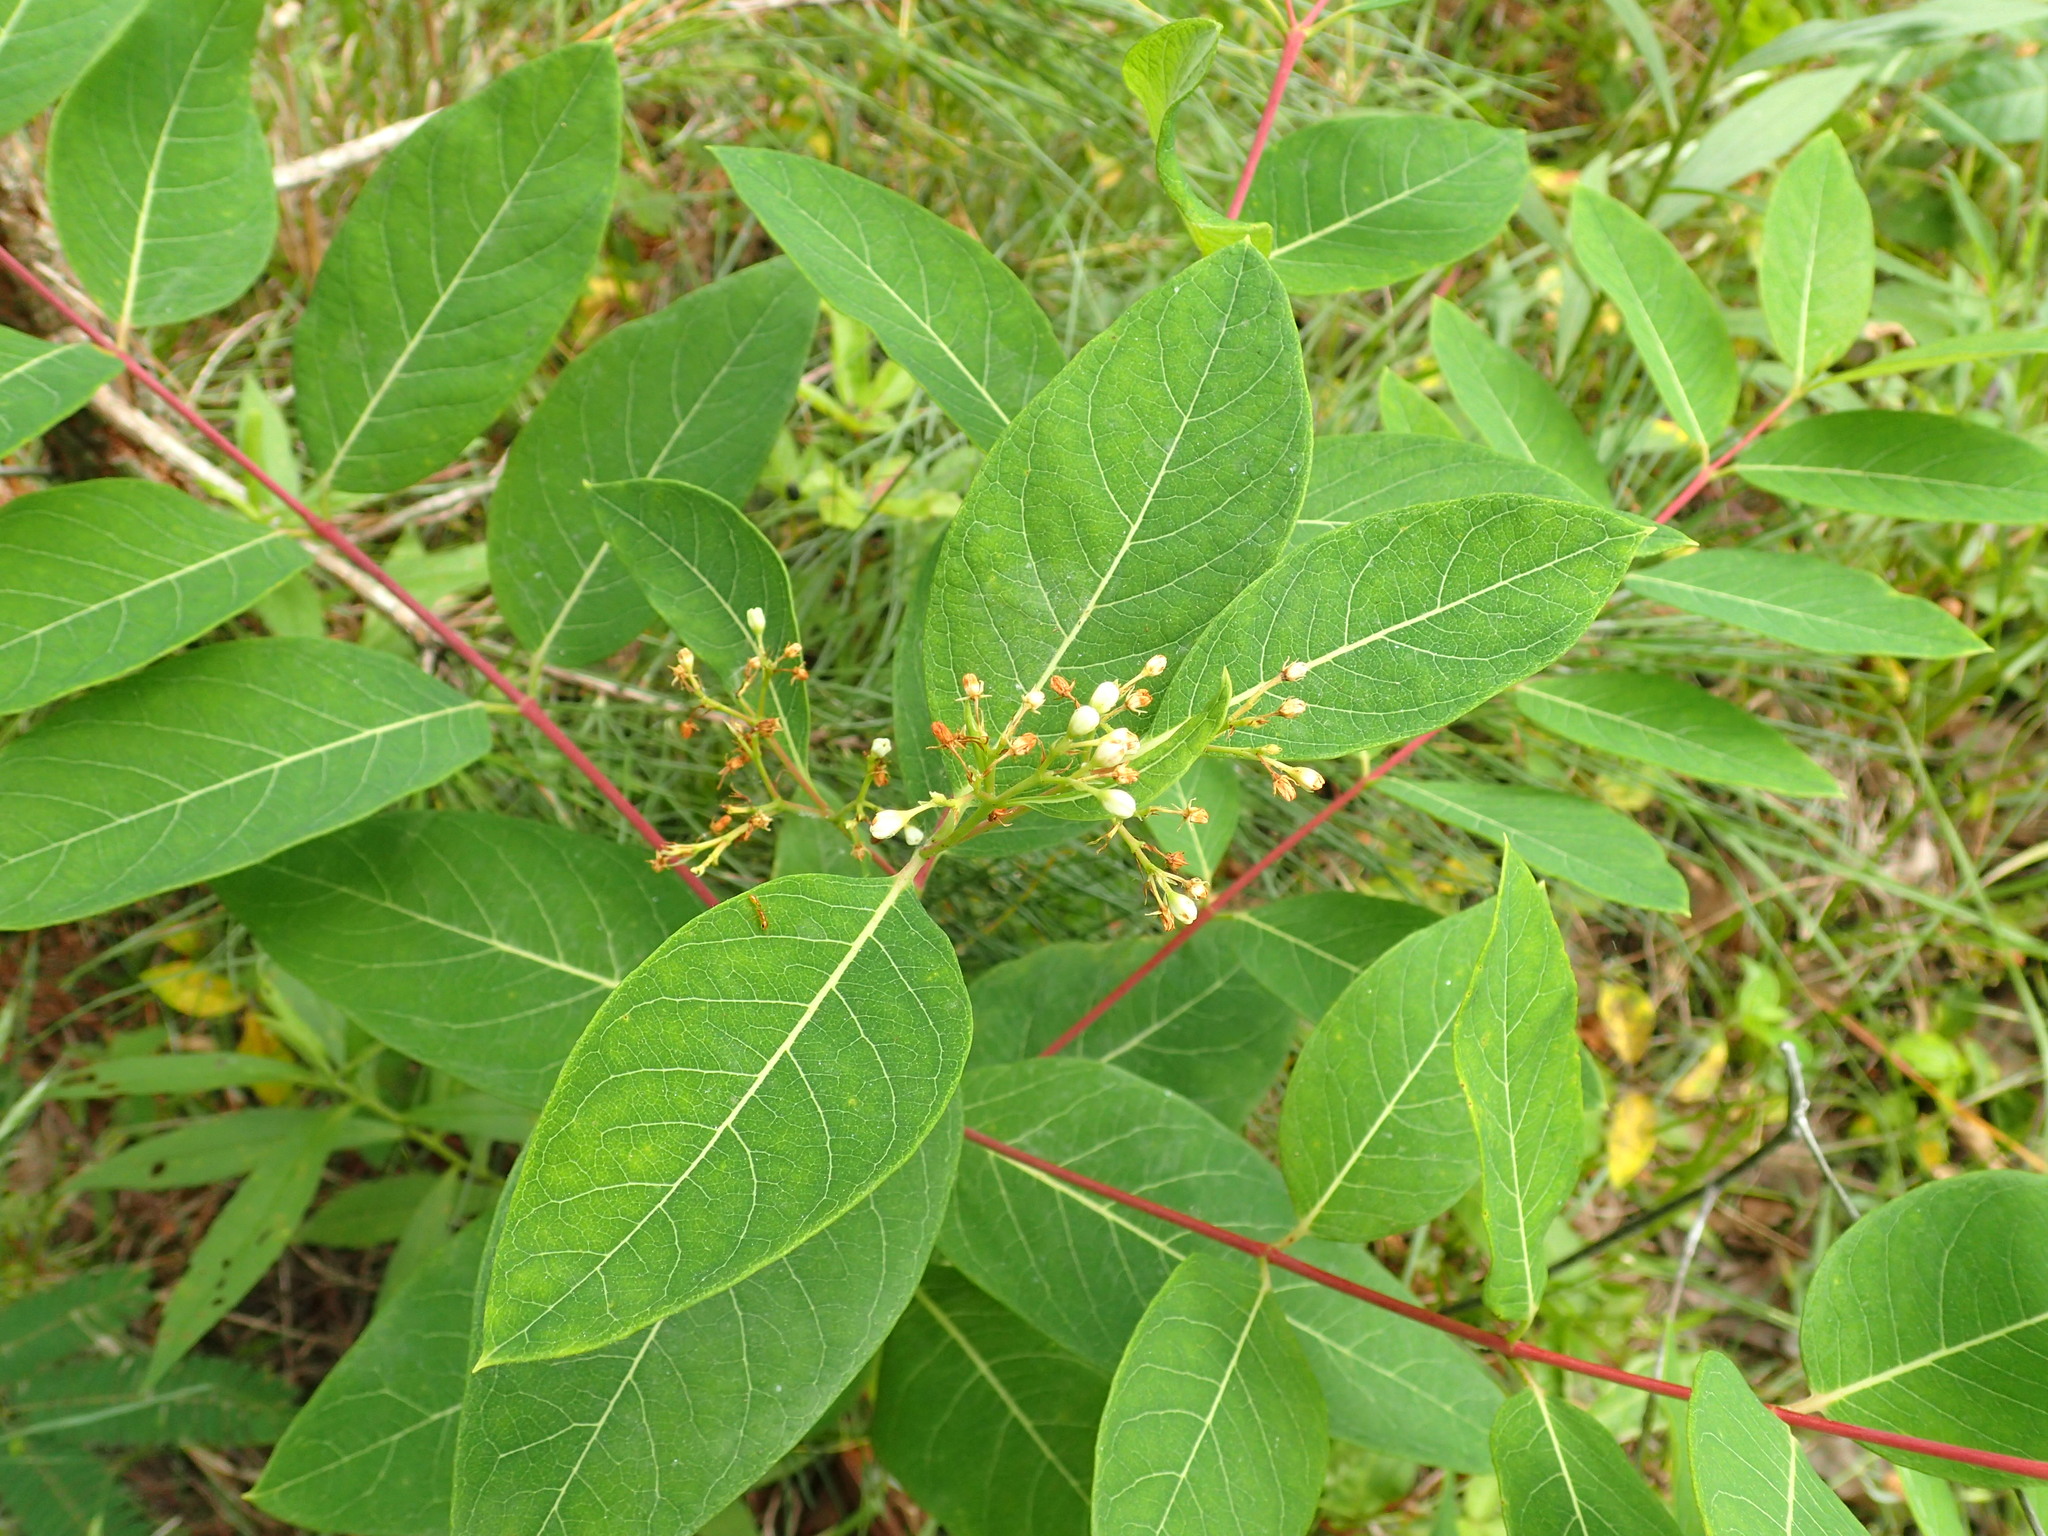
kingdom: Plantae
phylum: Tracheophyta
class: Magnoliopsida
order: Gentianales
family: Apocynaceae
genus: Apocynum
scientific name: Apocynum cannabinum
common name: Hemp dogbane
